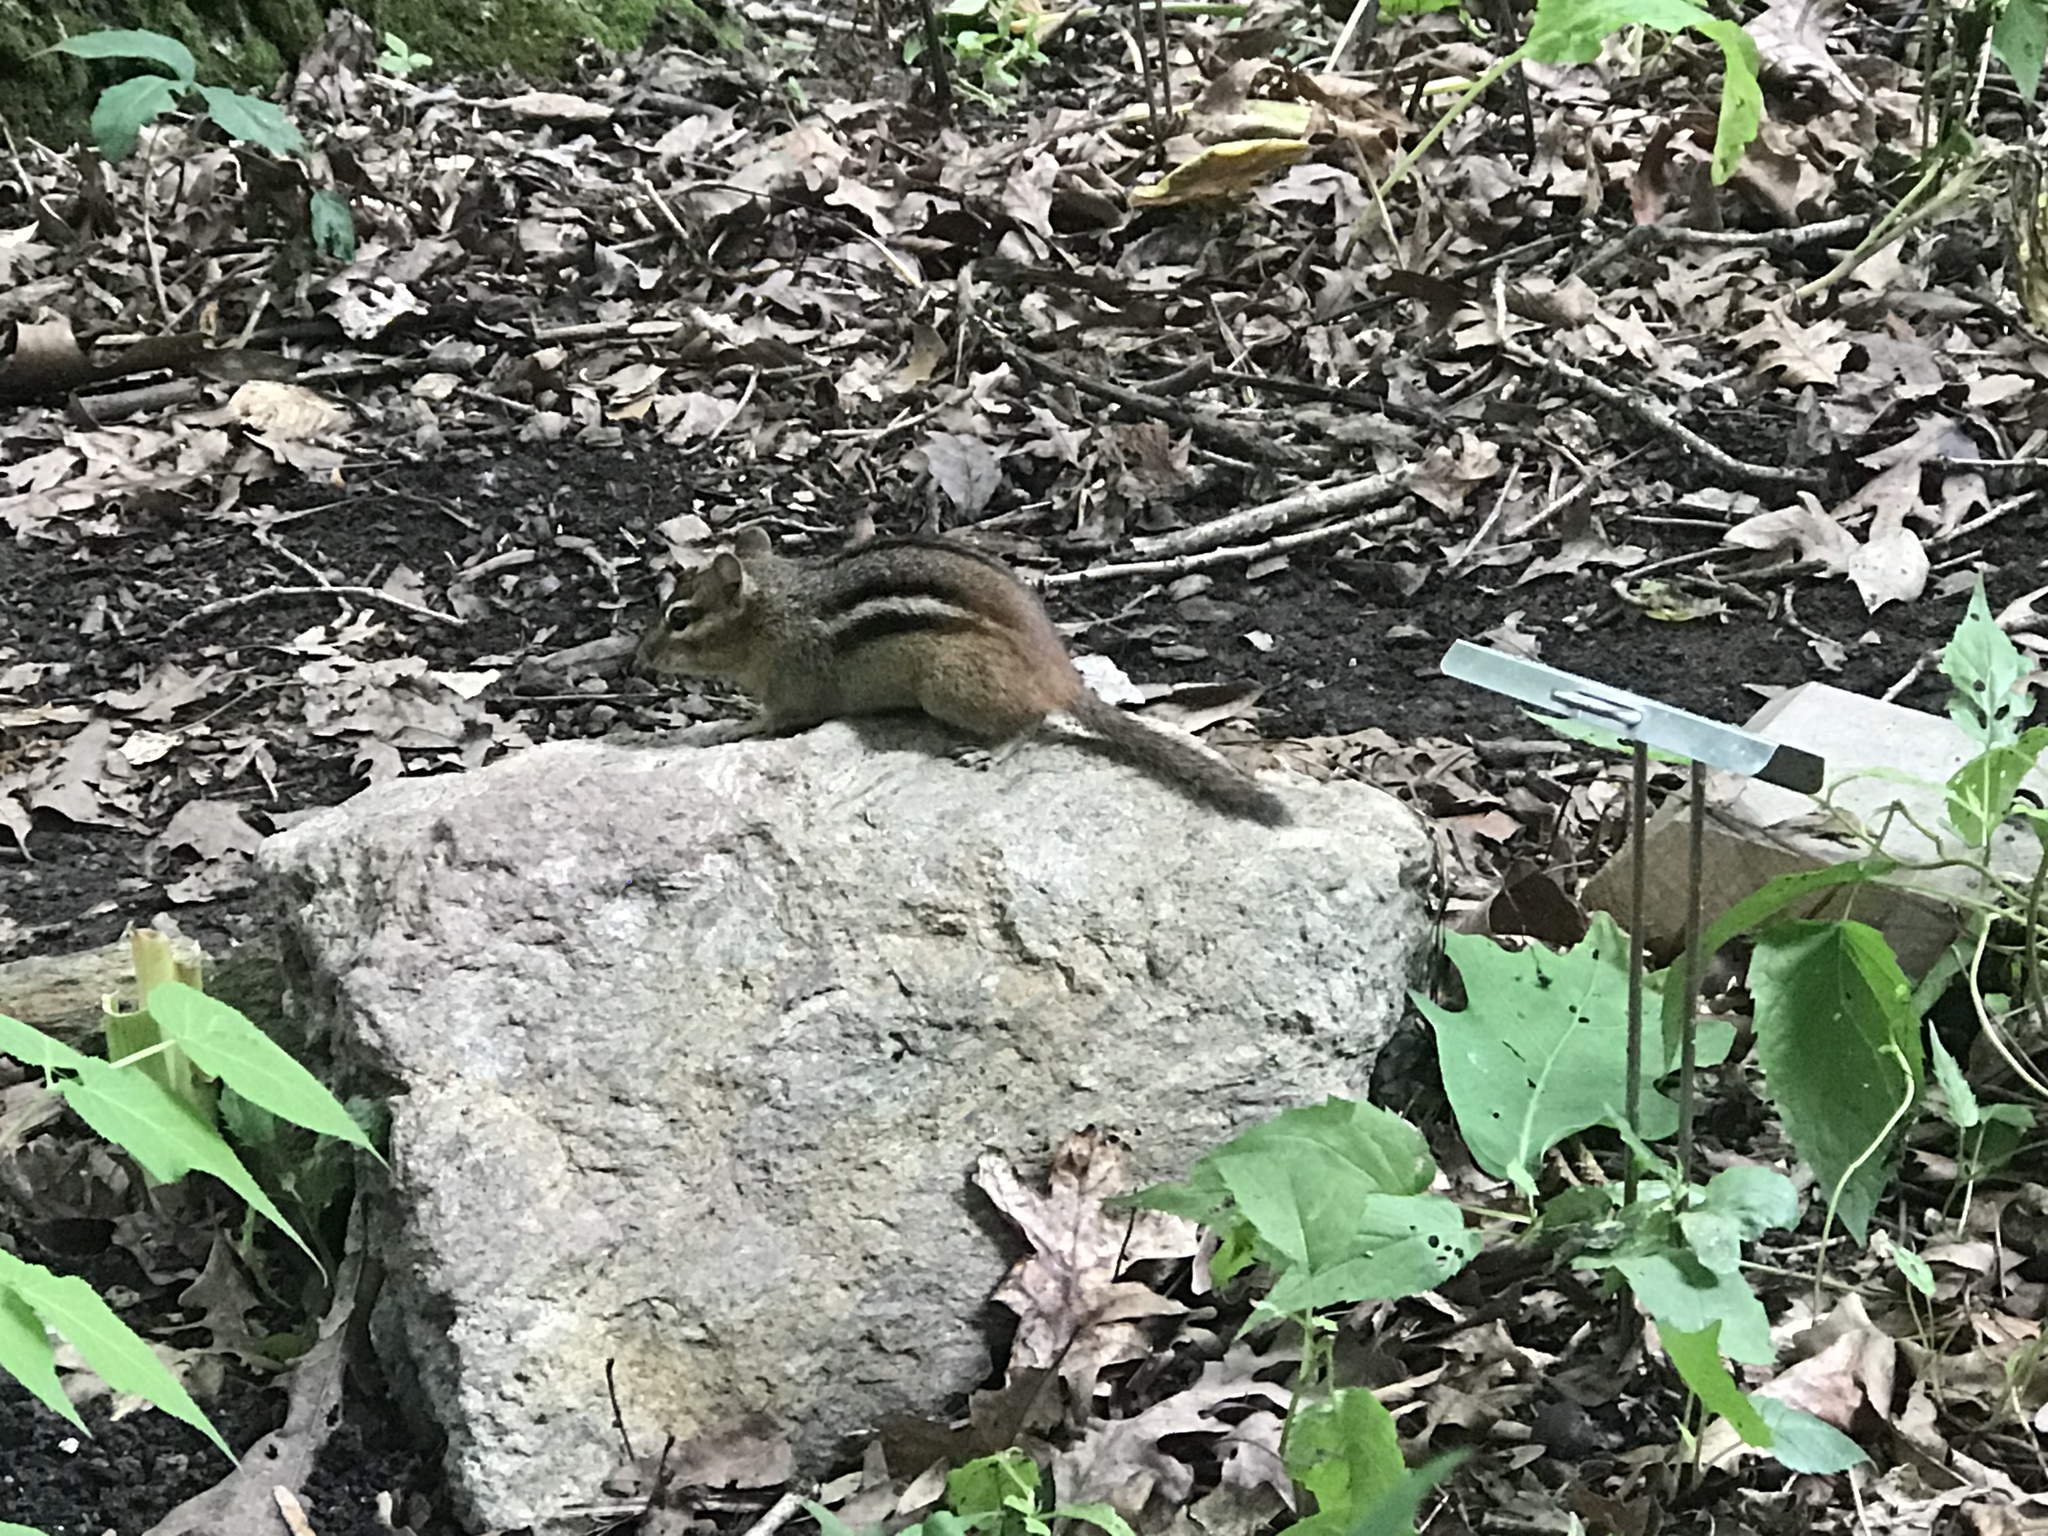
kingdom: Animalia
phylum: Chordata
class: Mammalia
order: Rodentia
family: Sciuridae
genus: Tamias
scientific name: Tamias striatus
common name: Eastern chipmunk
